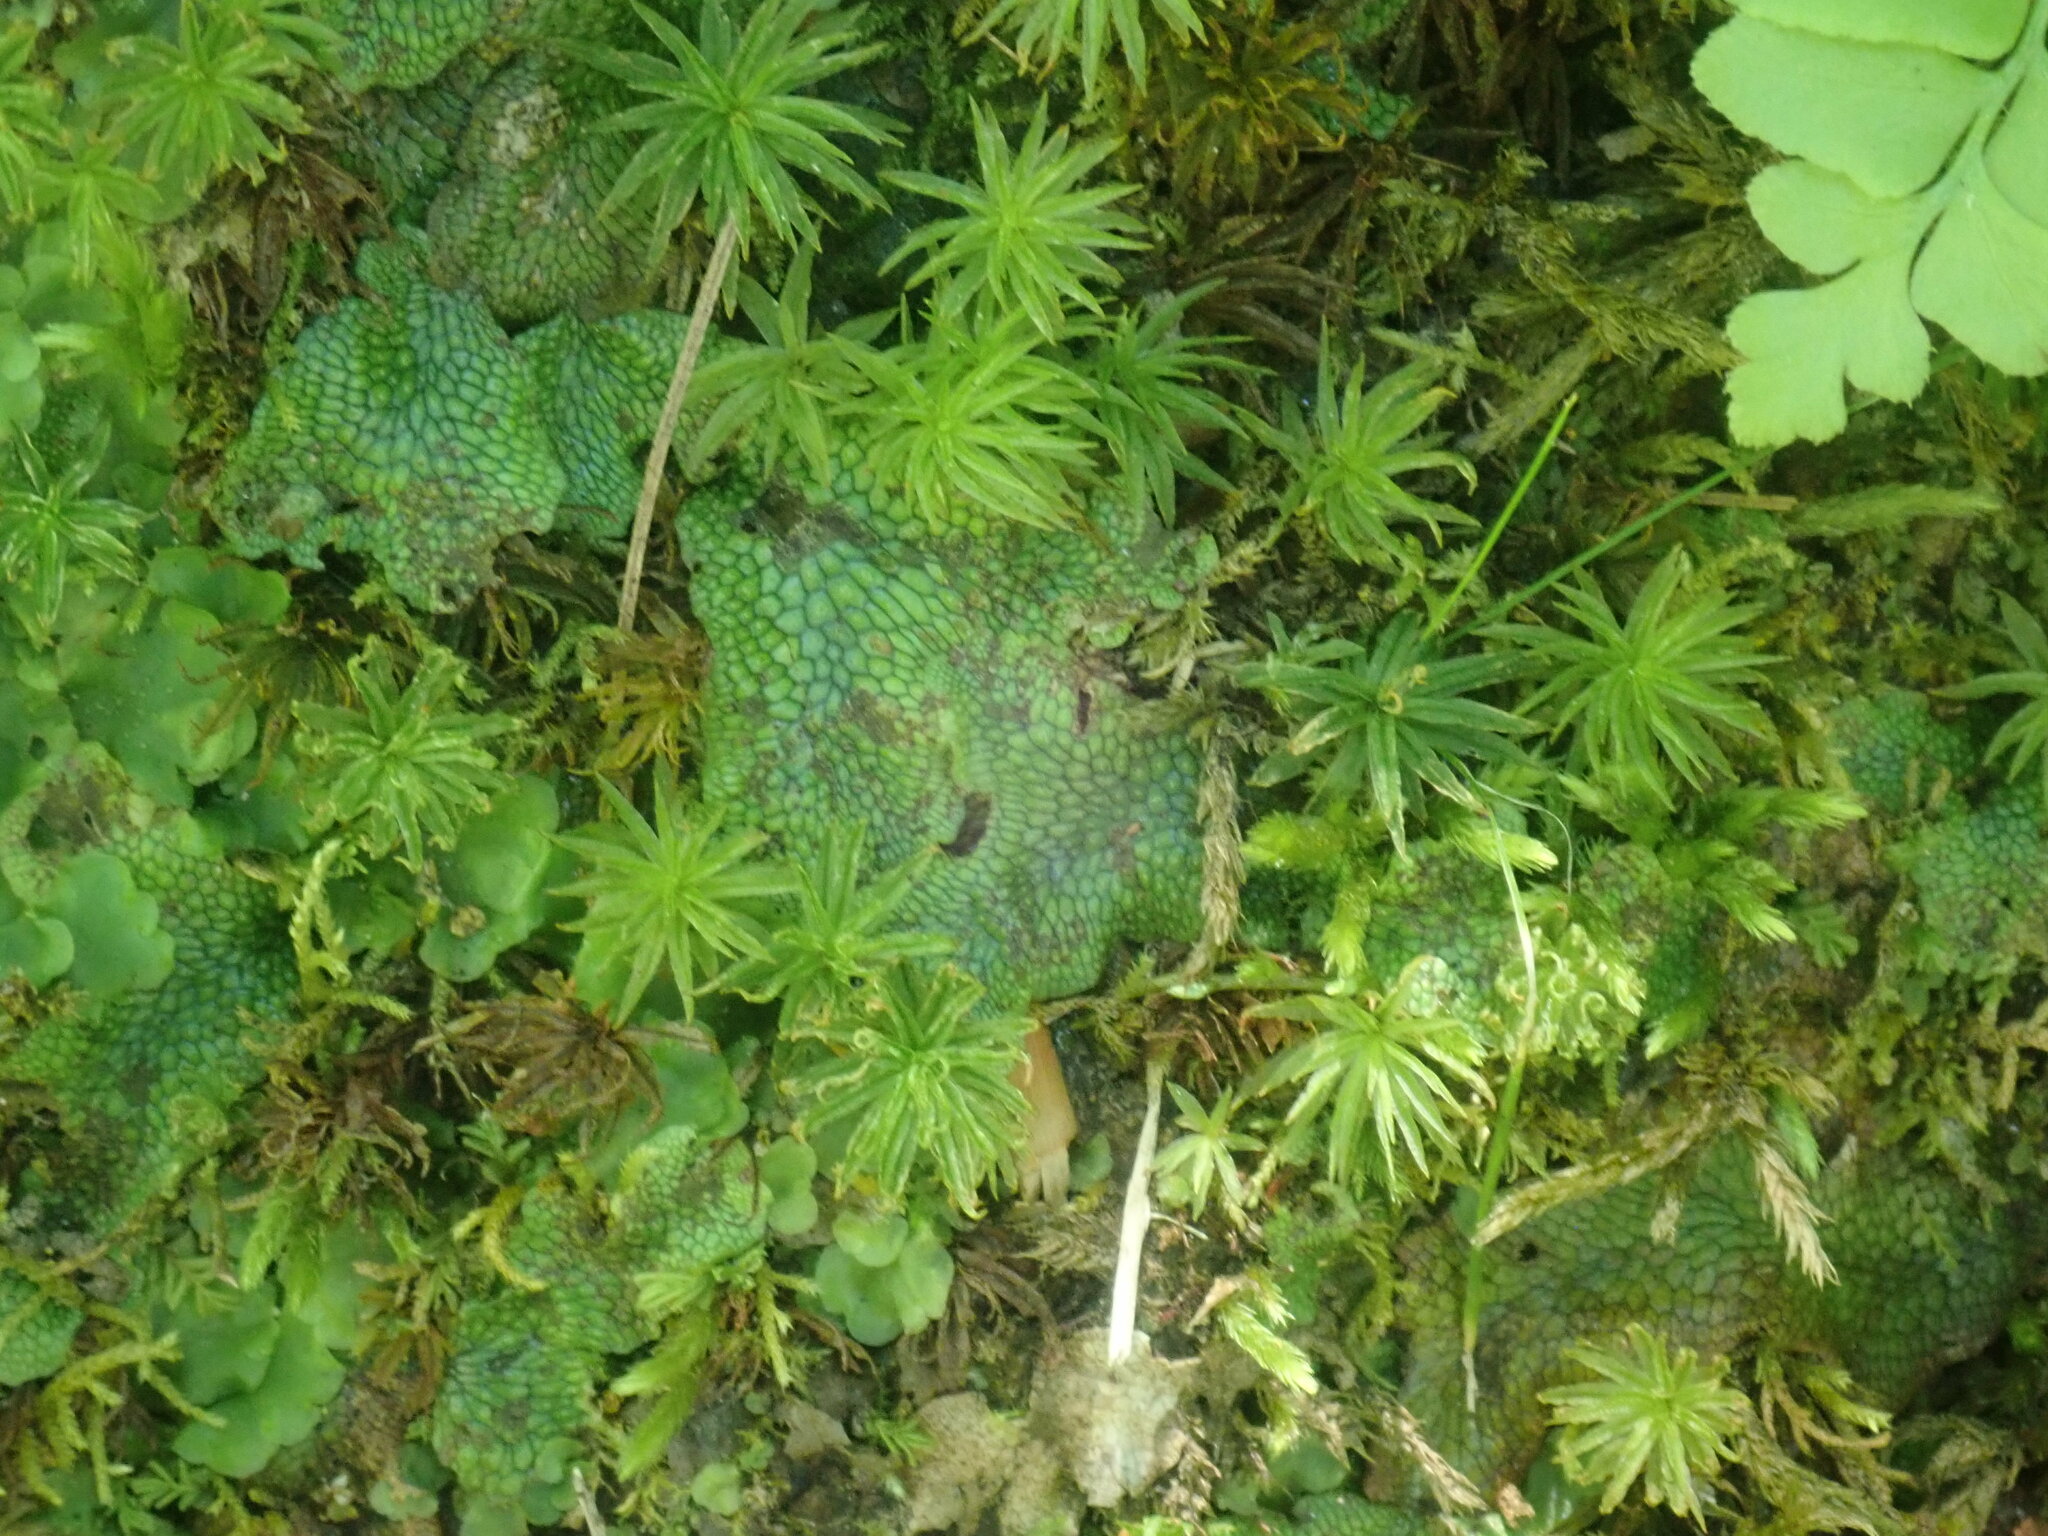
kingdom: Plantae
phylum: Marchantiophyta
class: Marchantiopsida
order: Marchantiales
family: Conocephalaceae
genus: Conocephalum
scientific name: Conocephalum salebrosum
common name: Cat-tongue liverwort
